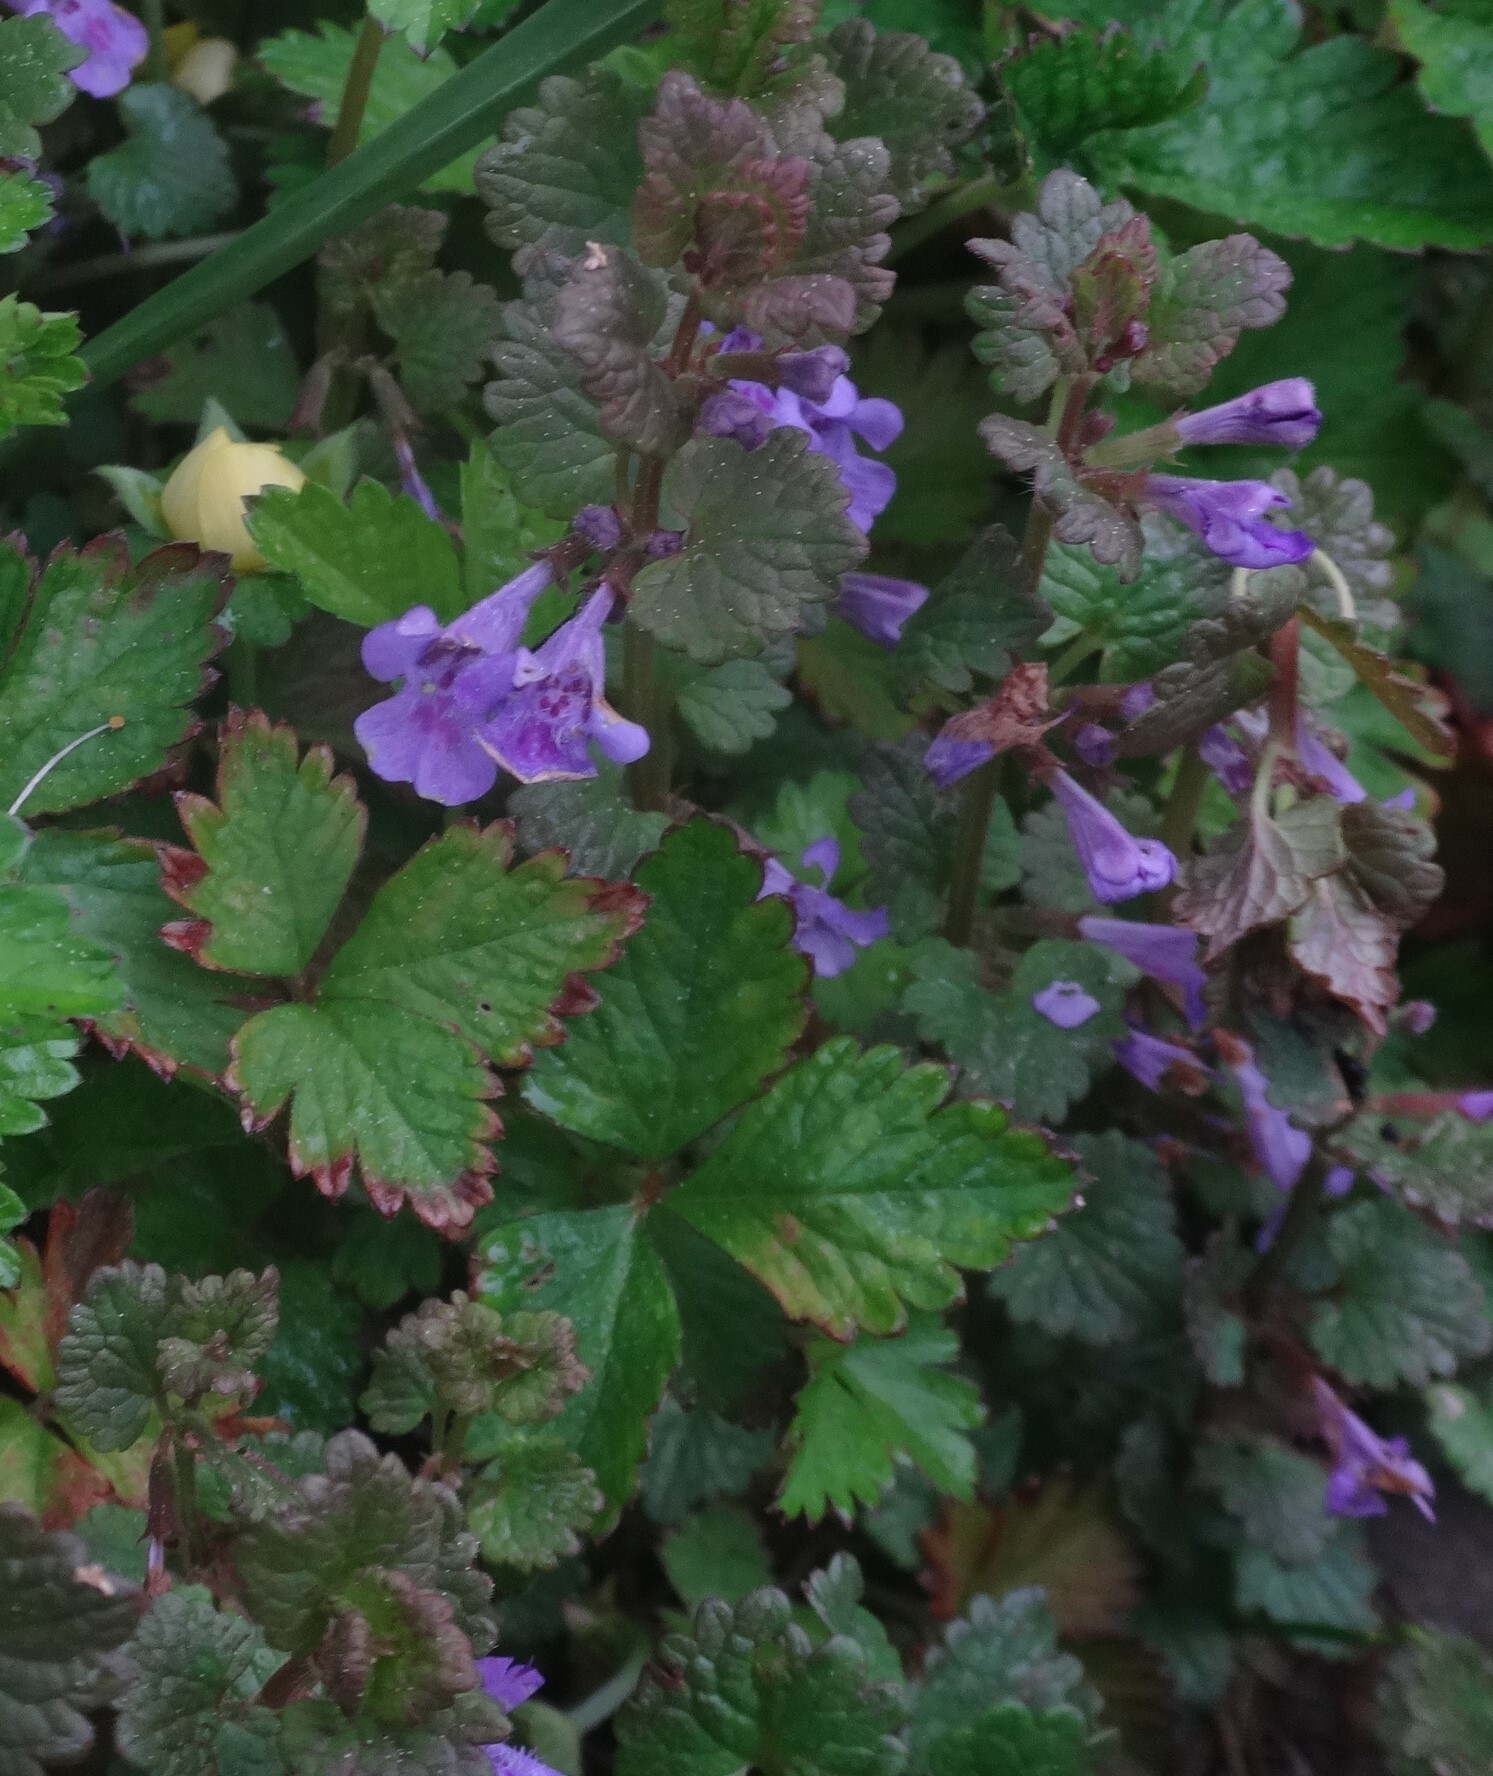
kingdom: Plantae
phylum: Tracheophyta
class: Magnoliopsida
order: Lamiales
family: Lamiaceae
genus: Glechoma
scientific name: Glechoma hederacea
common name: Ground ivy
